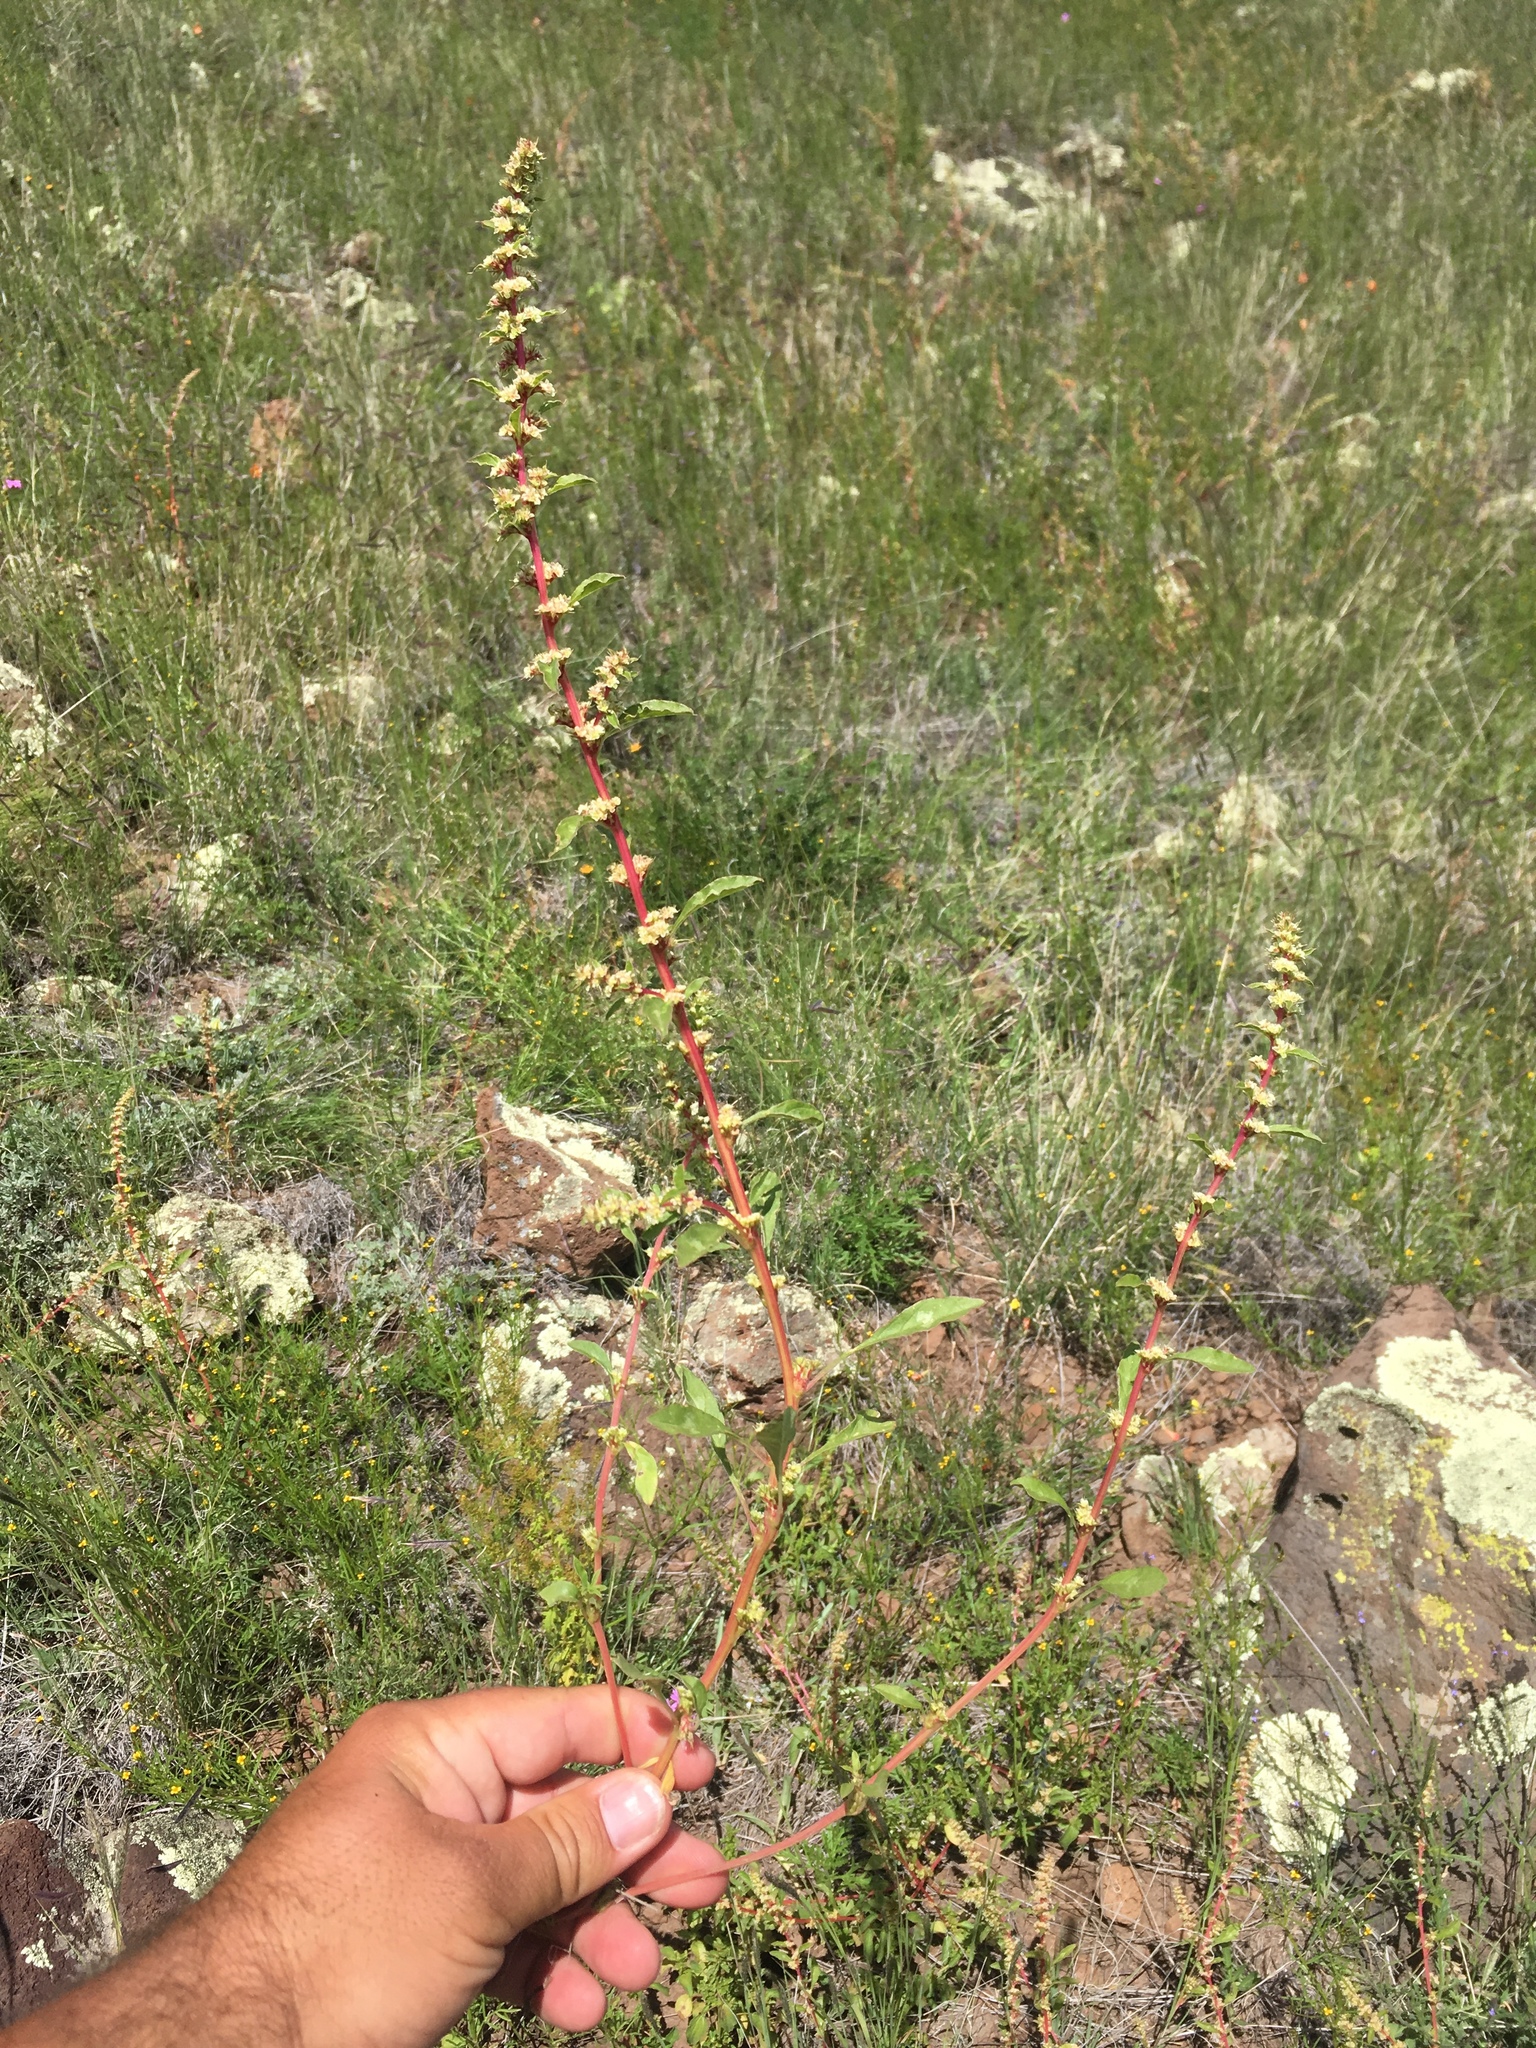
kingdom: Plantae
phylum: Tracheophyta
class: Magnoliopsida
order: Caryophyllales
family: Amaranthaceae
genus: Amaranthus
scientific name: Amaranthus torreyi
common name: Bigelow's amaranth
